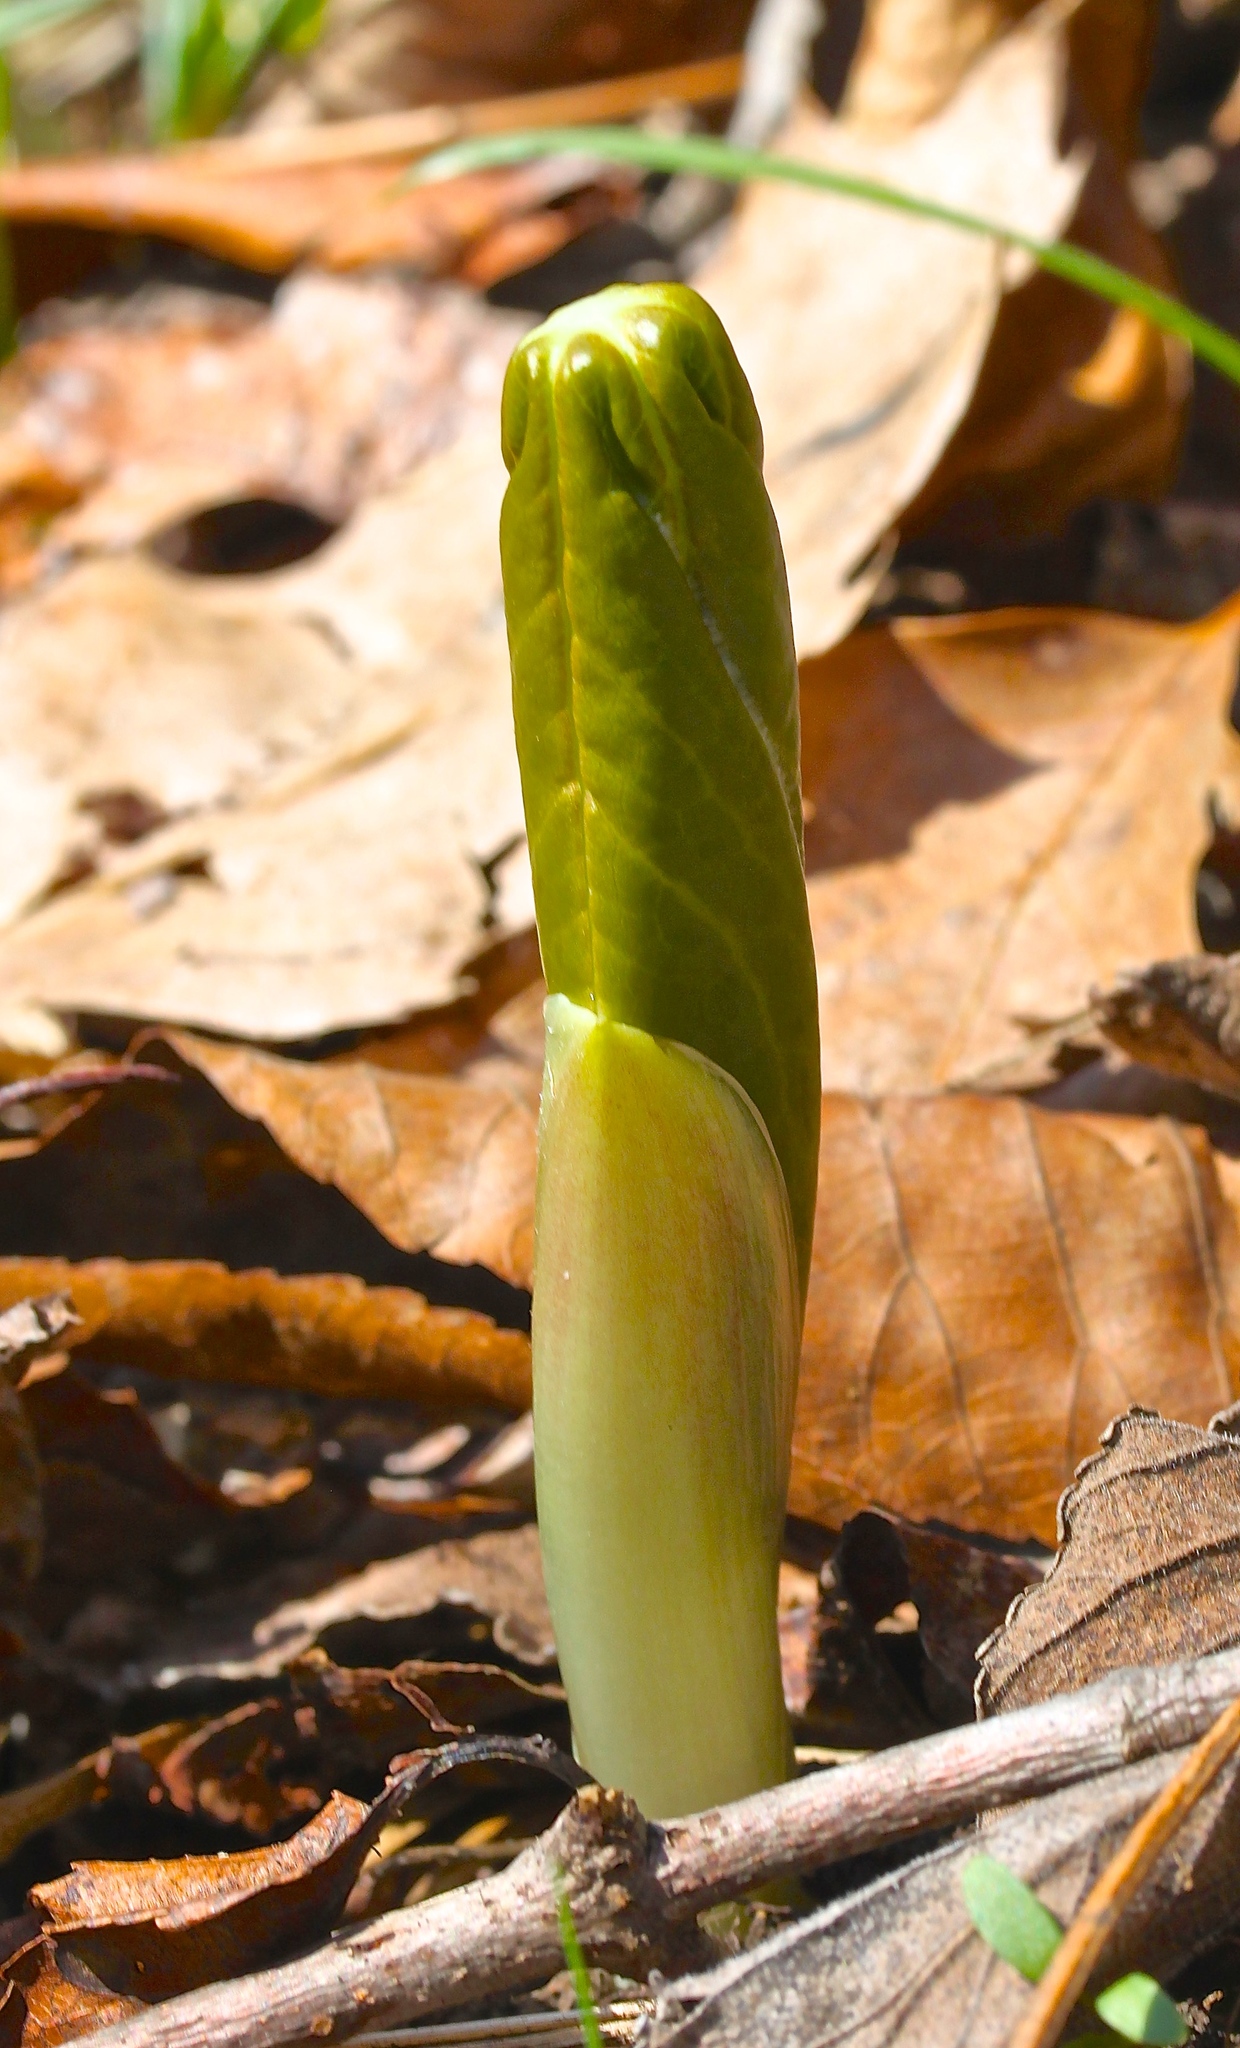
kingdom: Plantae
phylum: Tracheophyta
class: Magnoliopsida
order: Ranunculales
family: Berberidaceae
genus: Podophyllum
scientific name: Podophyllum peltatum
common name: Wild mandrake
